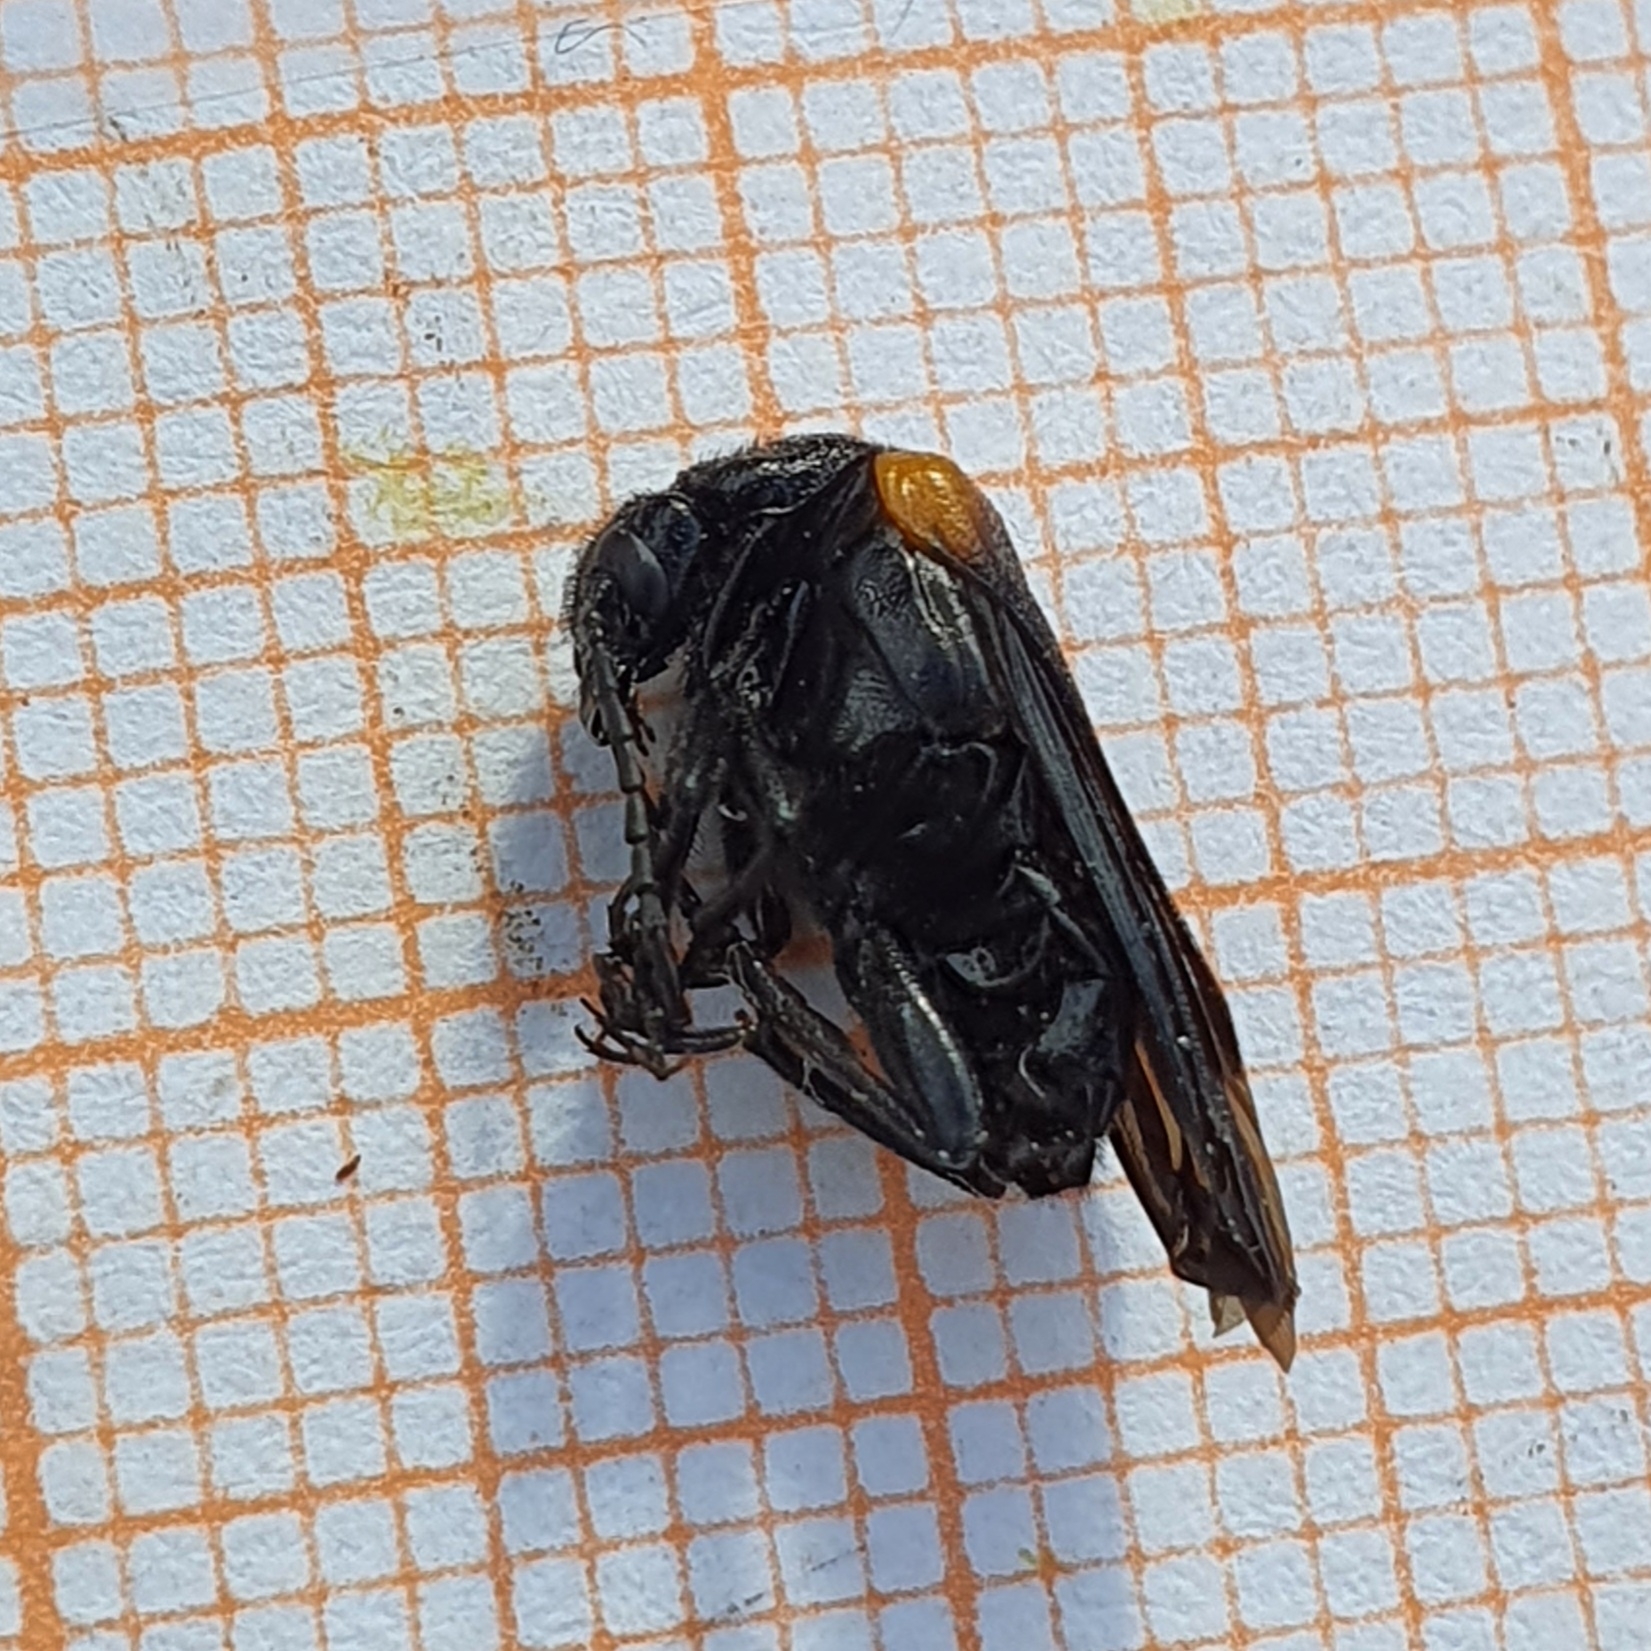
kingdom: Animalia
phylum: Arthropoda
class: Insecta
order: Coleoptera
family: Meloidae
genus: Sitaris
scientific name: Sitaris muralis
